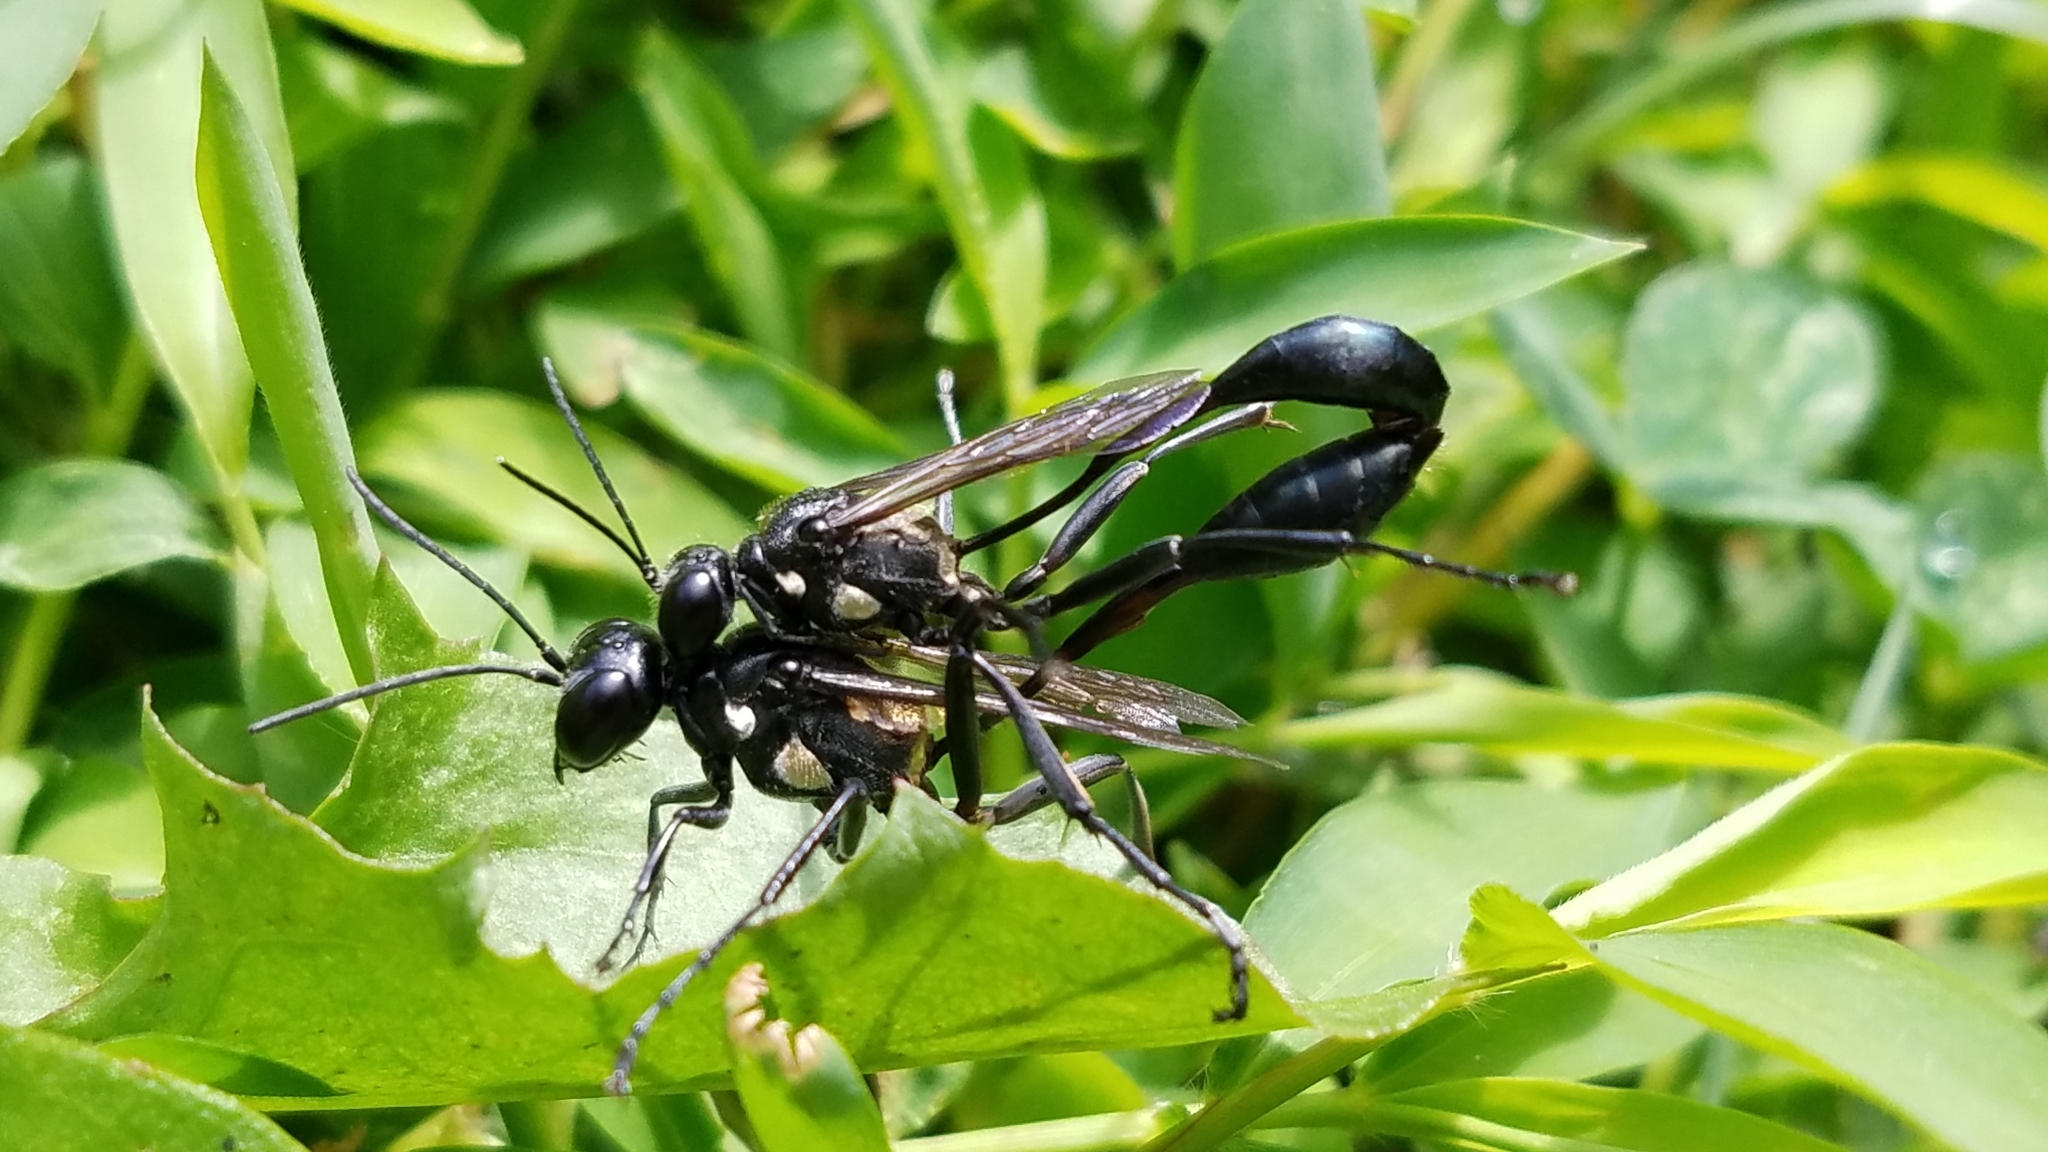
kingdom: Animalia
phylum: Arthropoda
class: Insecta
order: Hymenoptera
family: Sphecidae
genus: Eremnophila
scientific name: Eremnophila aureonotata
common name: Gold-marked thread-waisted wasp
